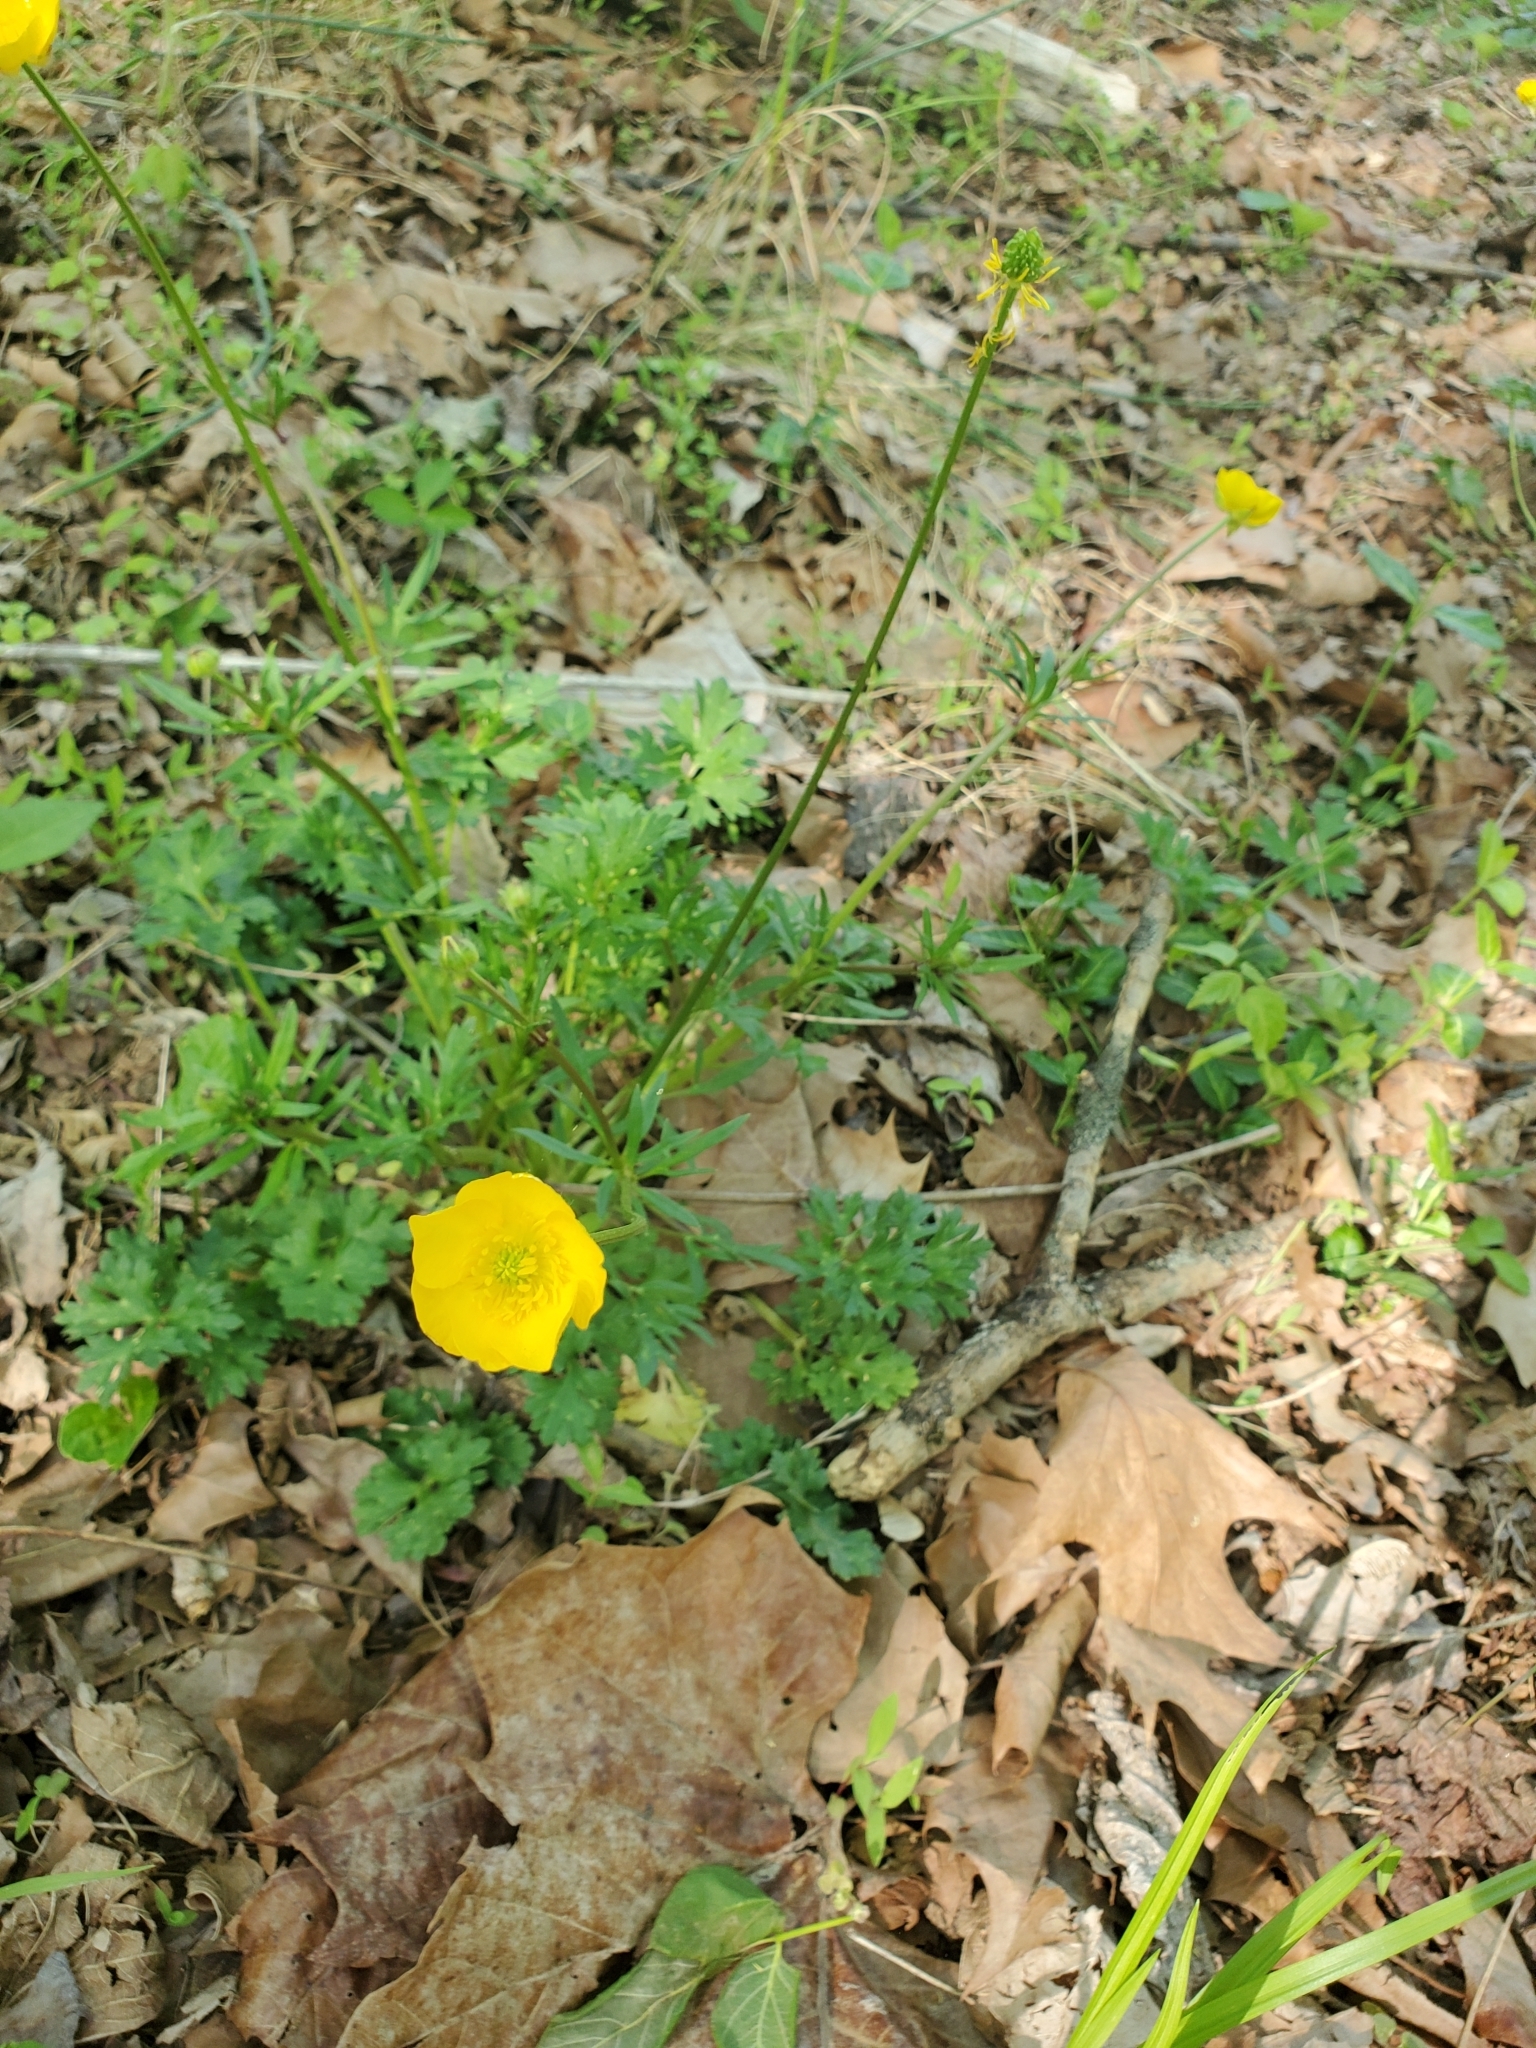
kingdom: Plantae
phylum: Tracheophyta
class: Magnoliopsida
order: Ranunculales
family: Ranunculaceae
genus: Ranunculus
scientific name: Ranunculus bulbosus
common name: Bulbous buttercup
